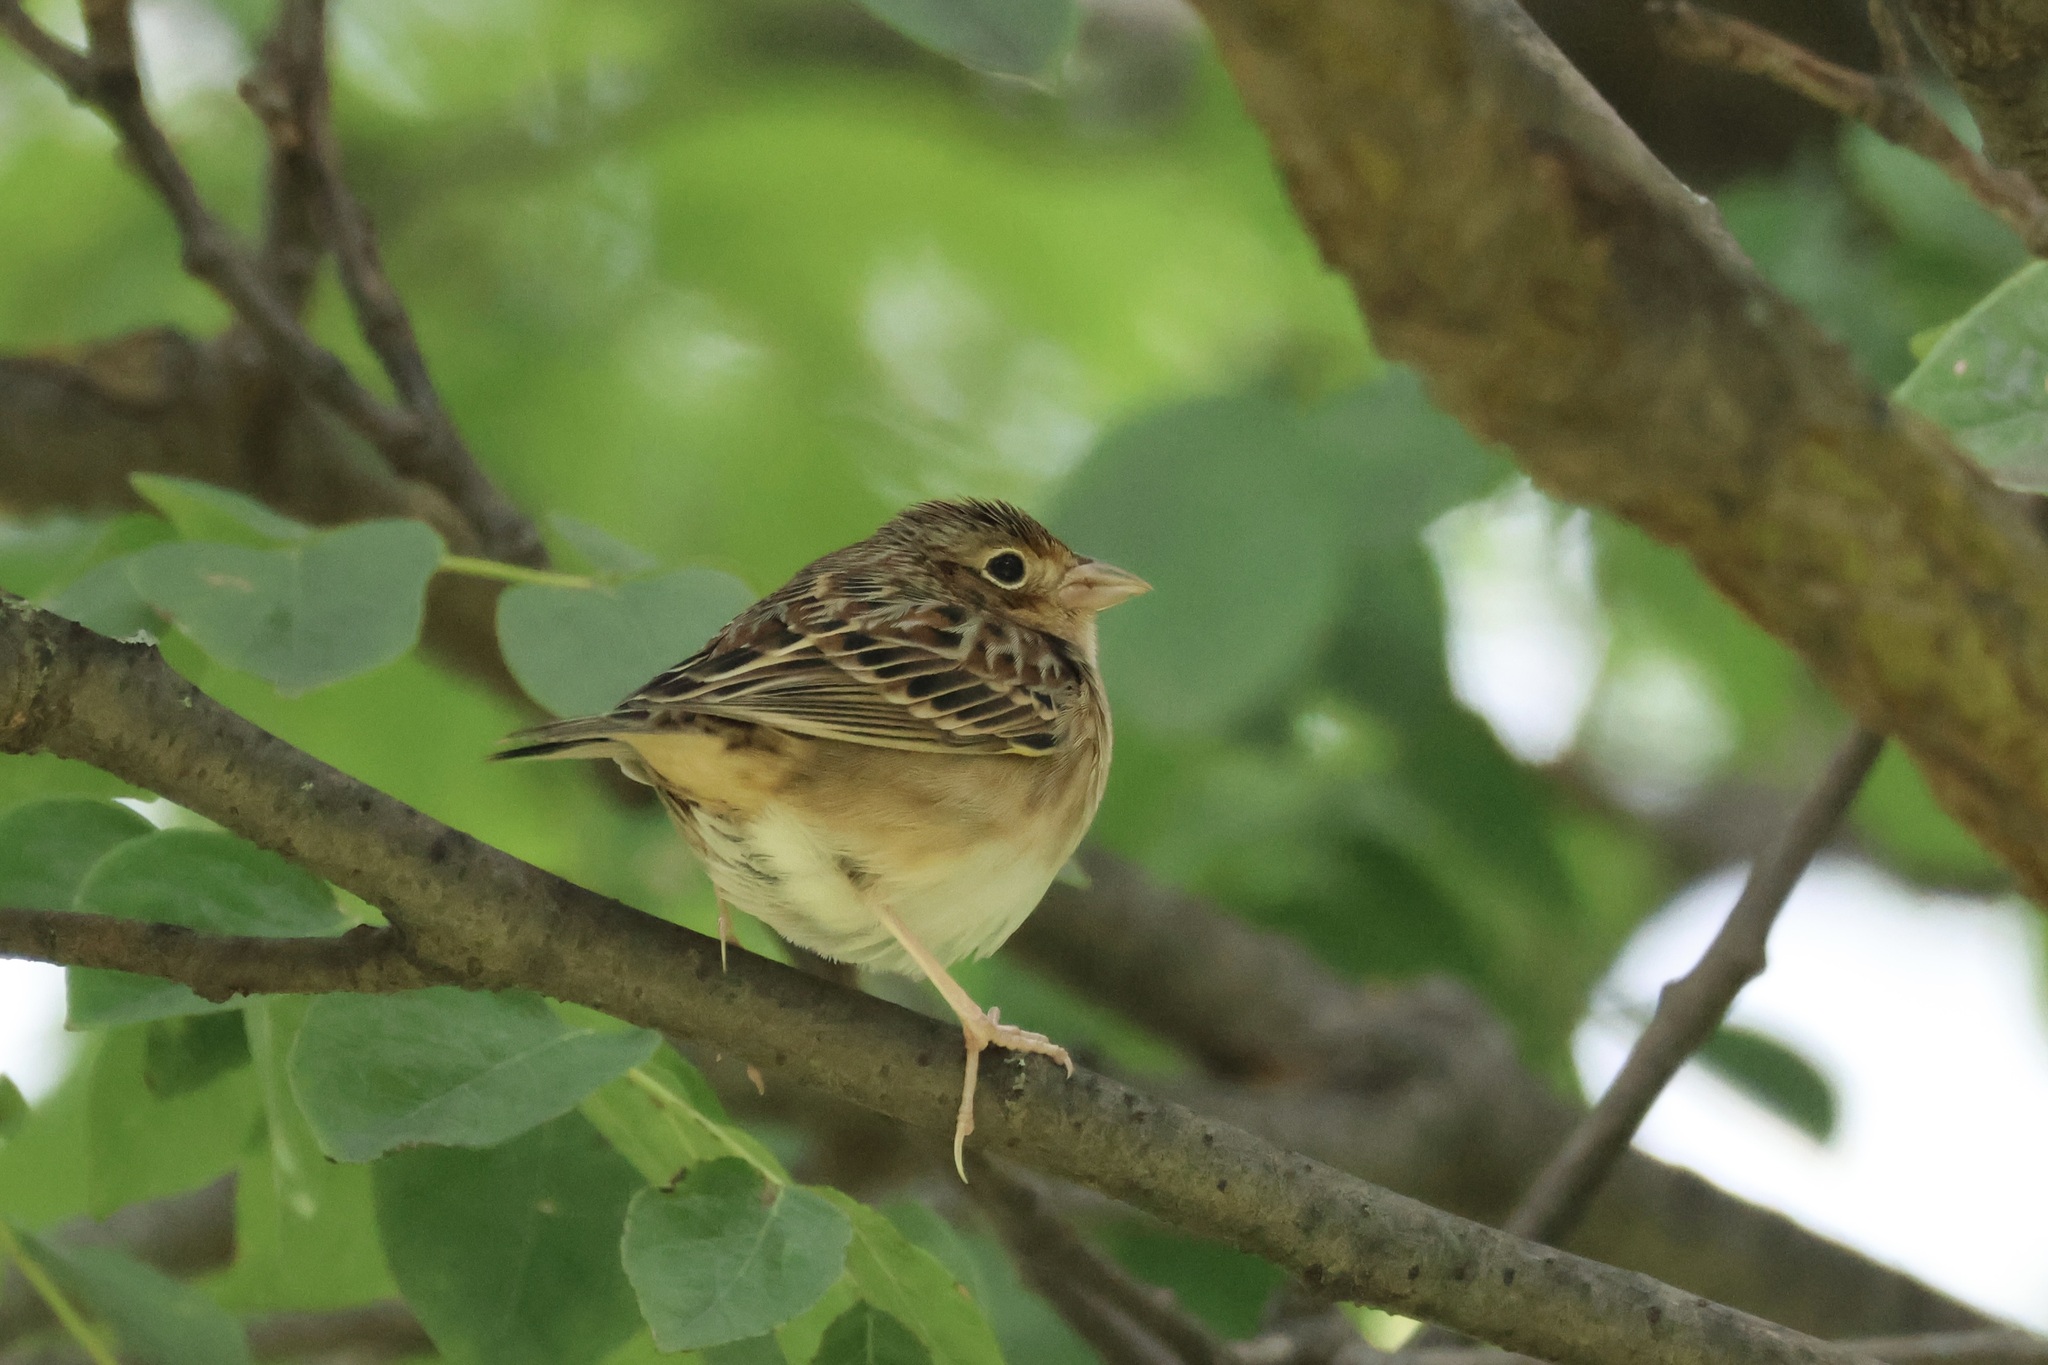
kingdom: Animalia
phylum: Chordata
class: Aves
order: Passeriformes
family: Passerellidae
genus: Ammodramus
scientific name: Ammodramus savannarum
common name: Grasshopper sparrow
